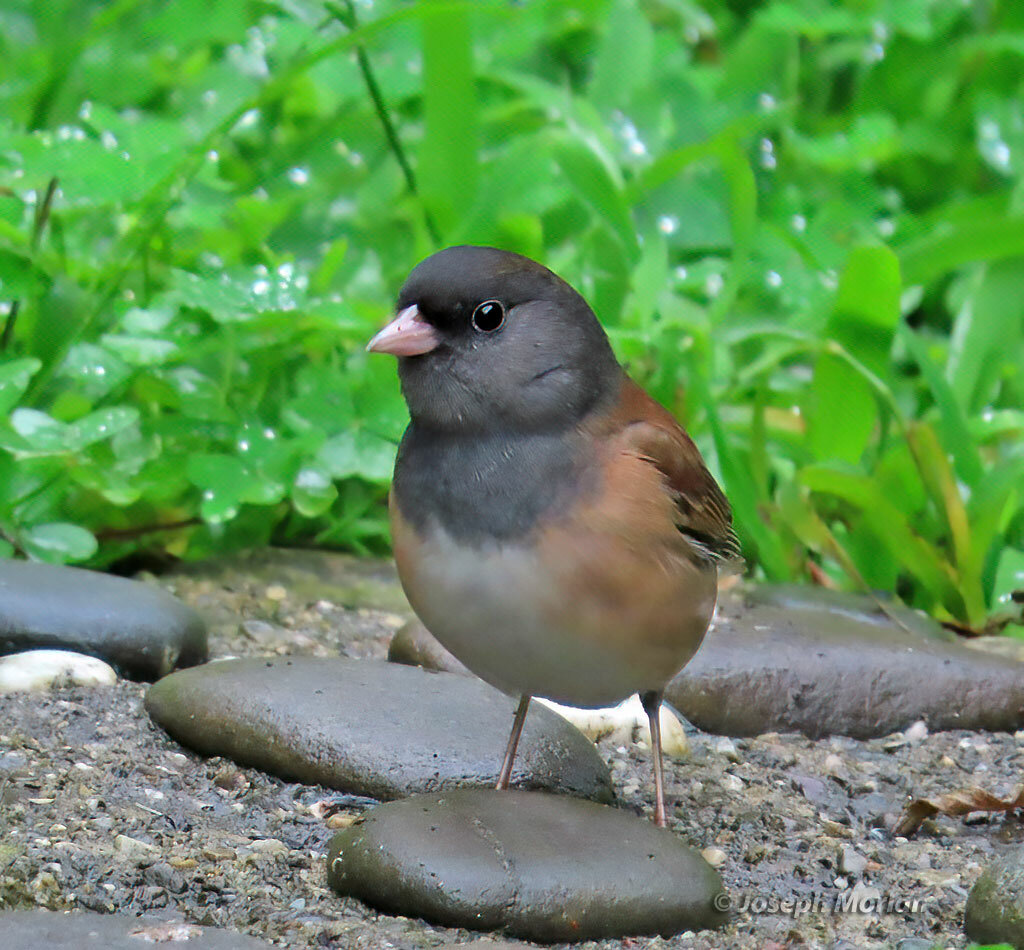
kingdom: Animalia
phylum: Chordata
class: Aves
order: Passeriformes
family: Passerellidae
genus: Junco
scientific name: Junco hyemalis
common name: Dark-eyed junco
